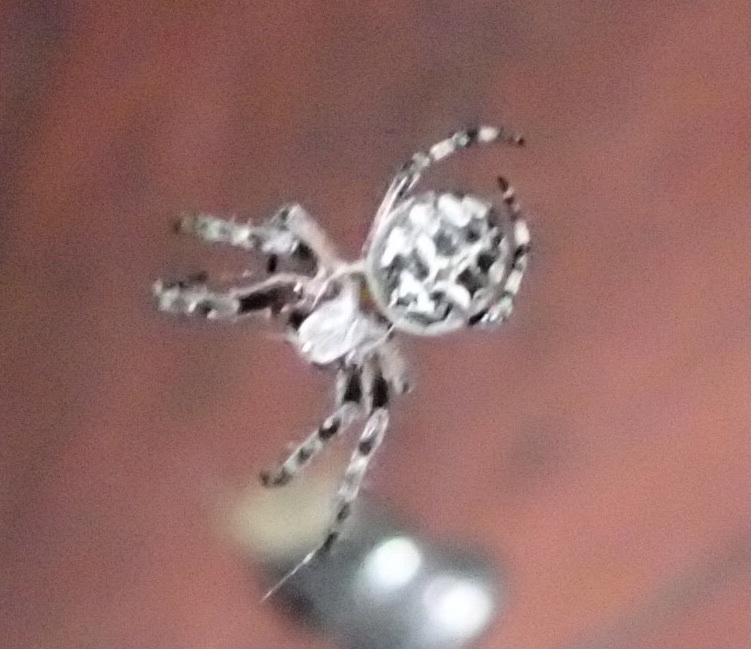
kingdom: Animalia
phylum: Arthropoda
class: Arachnida
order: Araneae
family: Araneidae
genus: Larinioides
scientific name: Larinioides sclopetarius
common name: Bridge orbweaver
